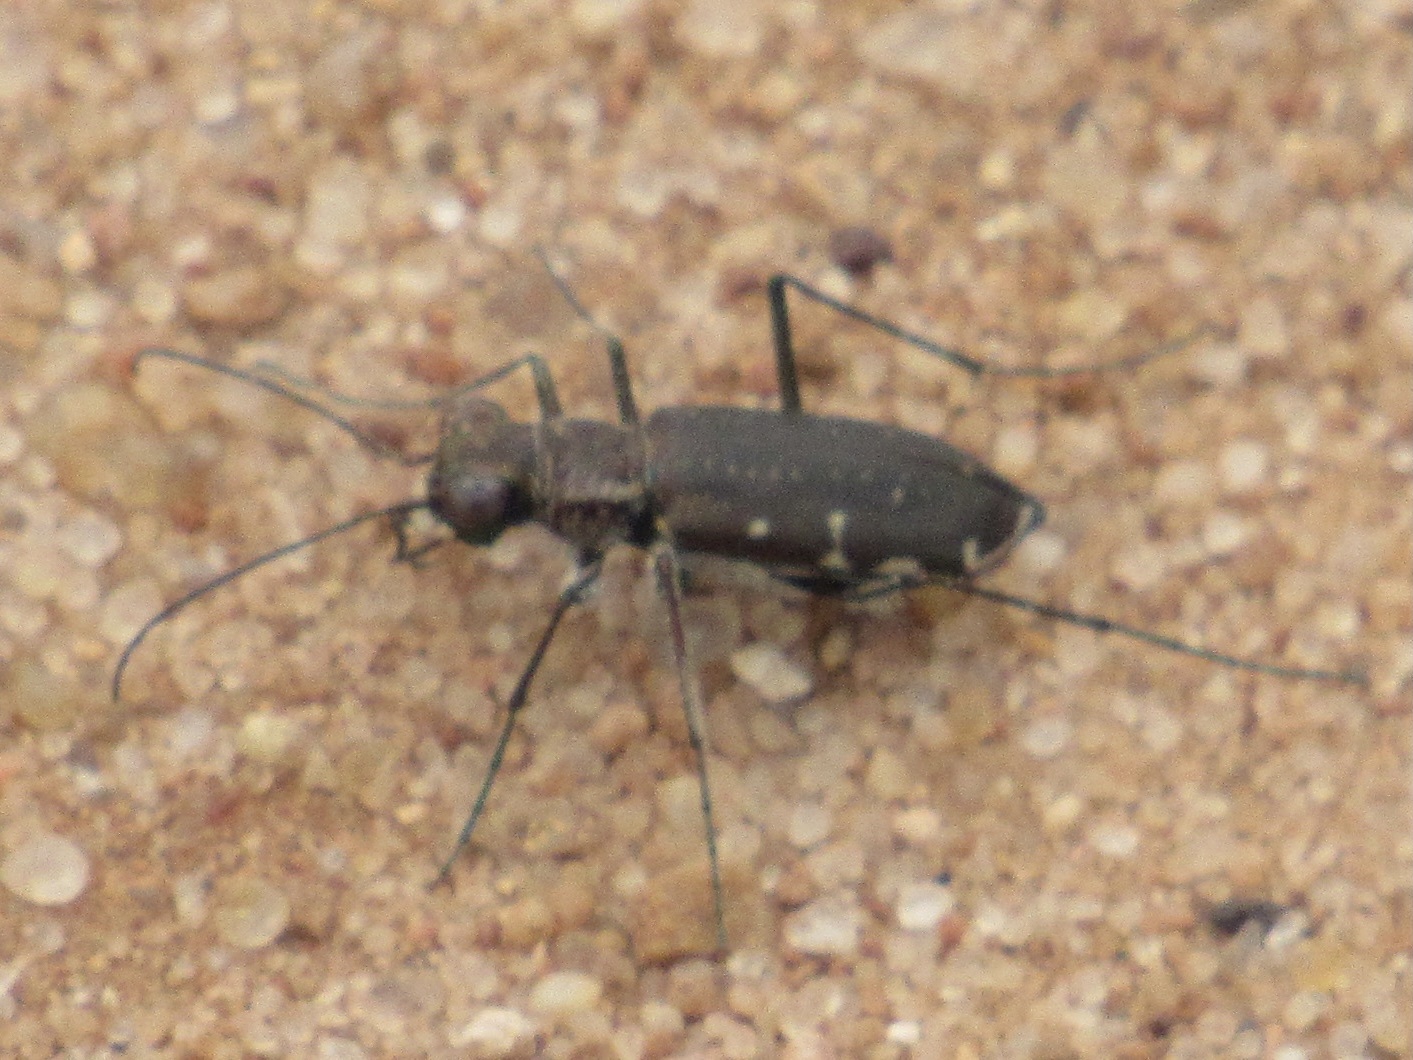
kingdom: Animalia
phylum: Arthropoda
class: Insecta
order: Coleoptera
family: Carabidae
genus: Cicindela
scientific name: Cicindela punctulata
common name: Punctured tiger beetle
